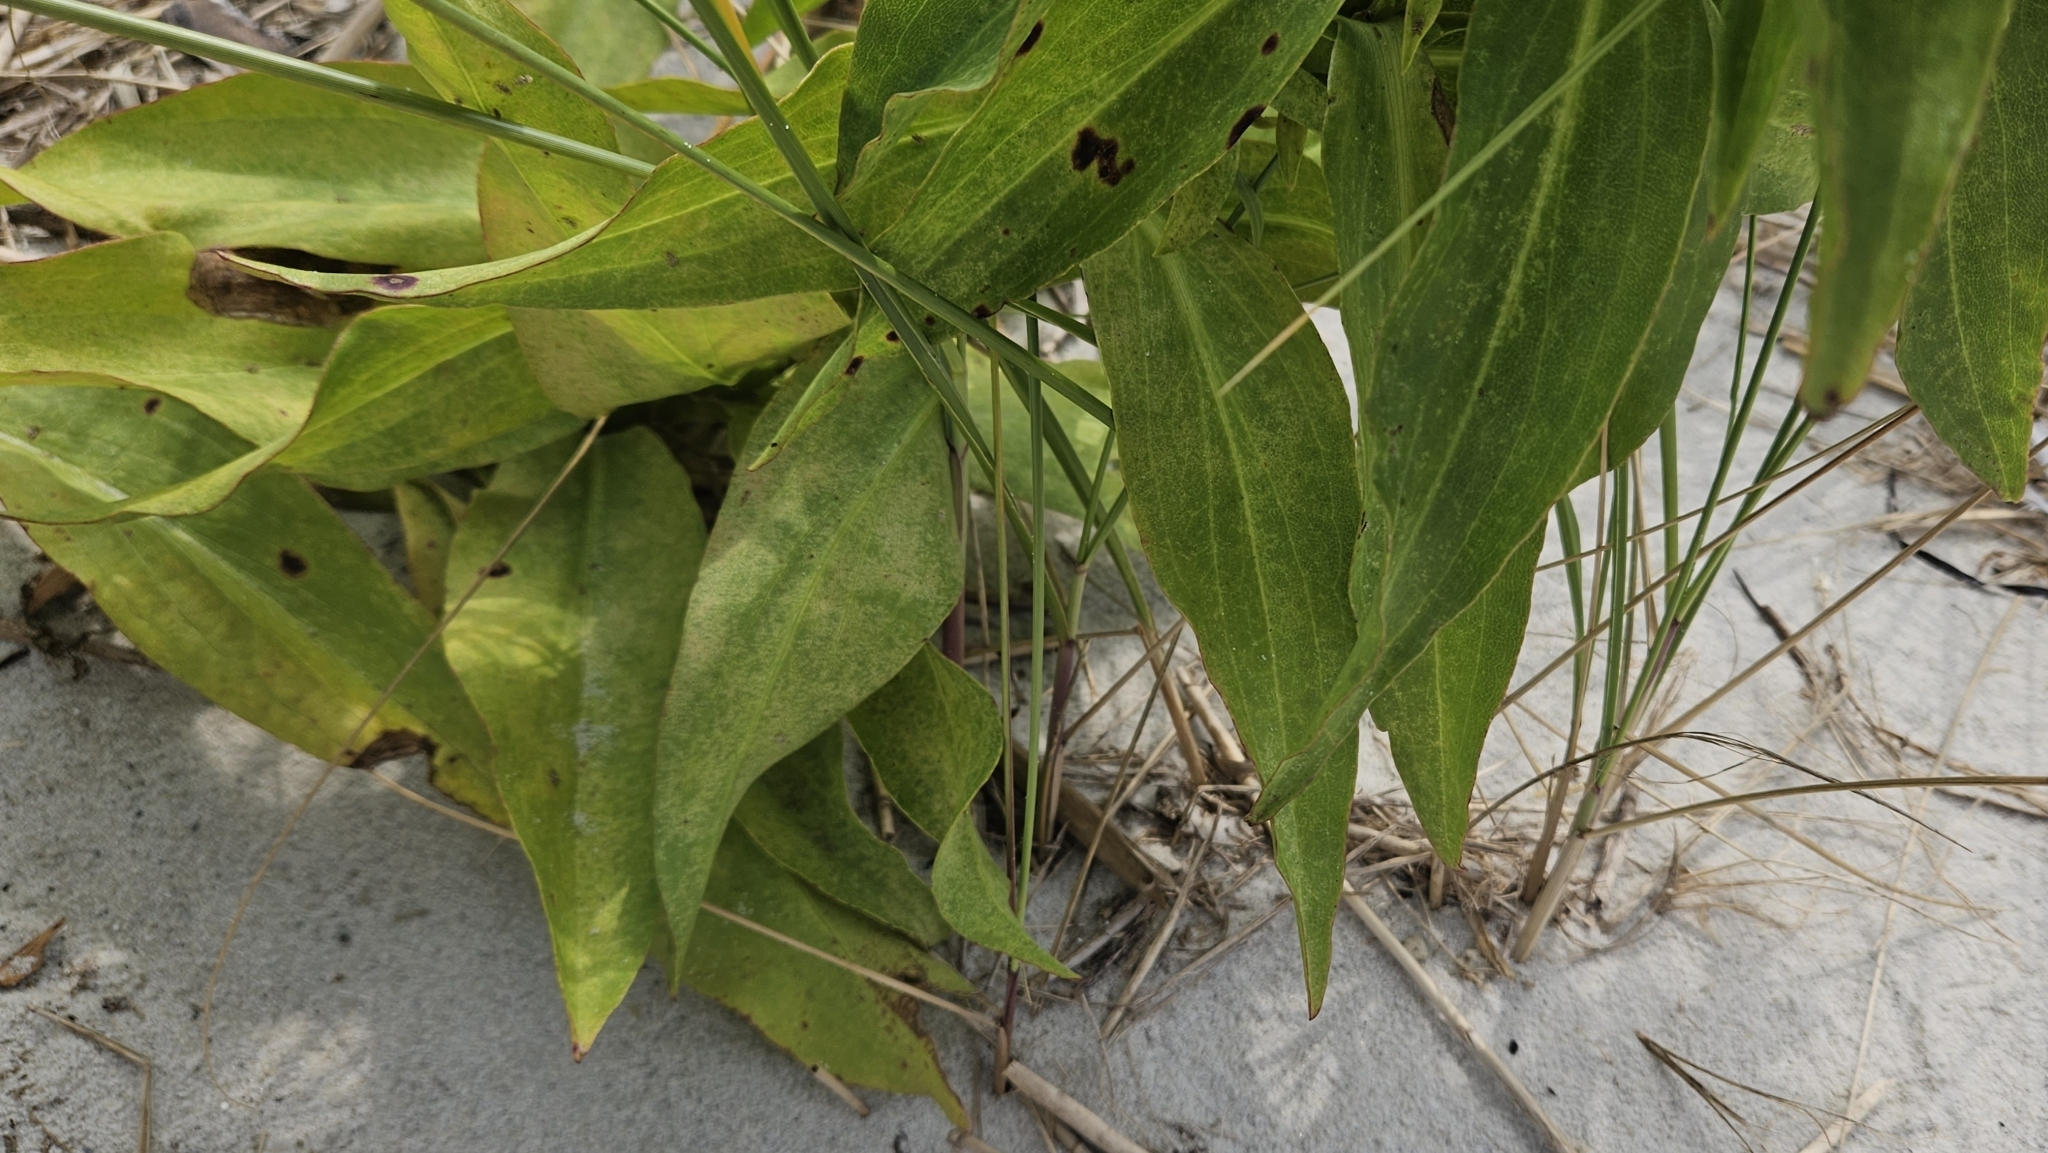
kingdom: Plantae
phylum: Tracheophyta
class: Magnoliopsida
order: Asterales
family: Asteraceae
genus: Solidago
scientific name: Solidago sempervirens
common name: Salt-marsh goldenrod
